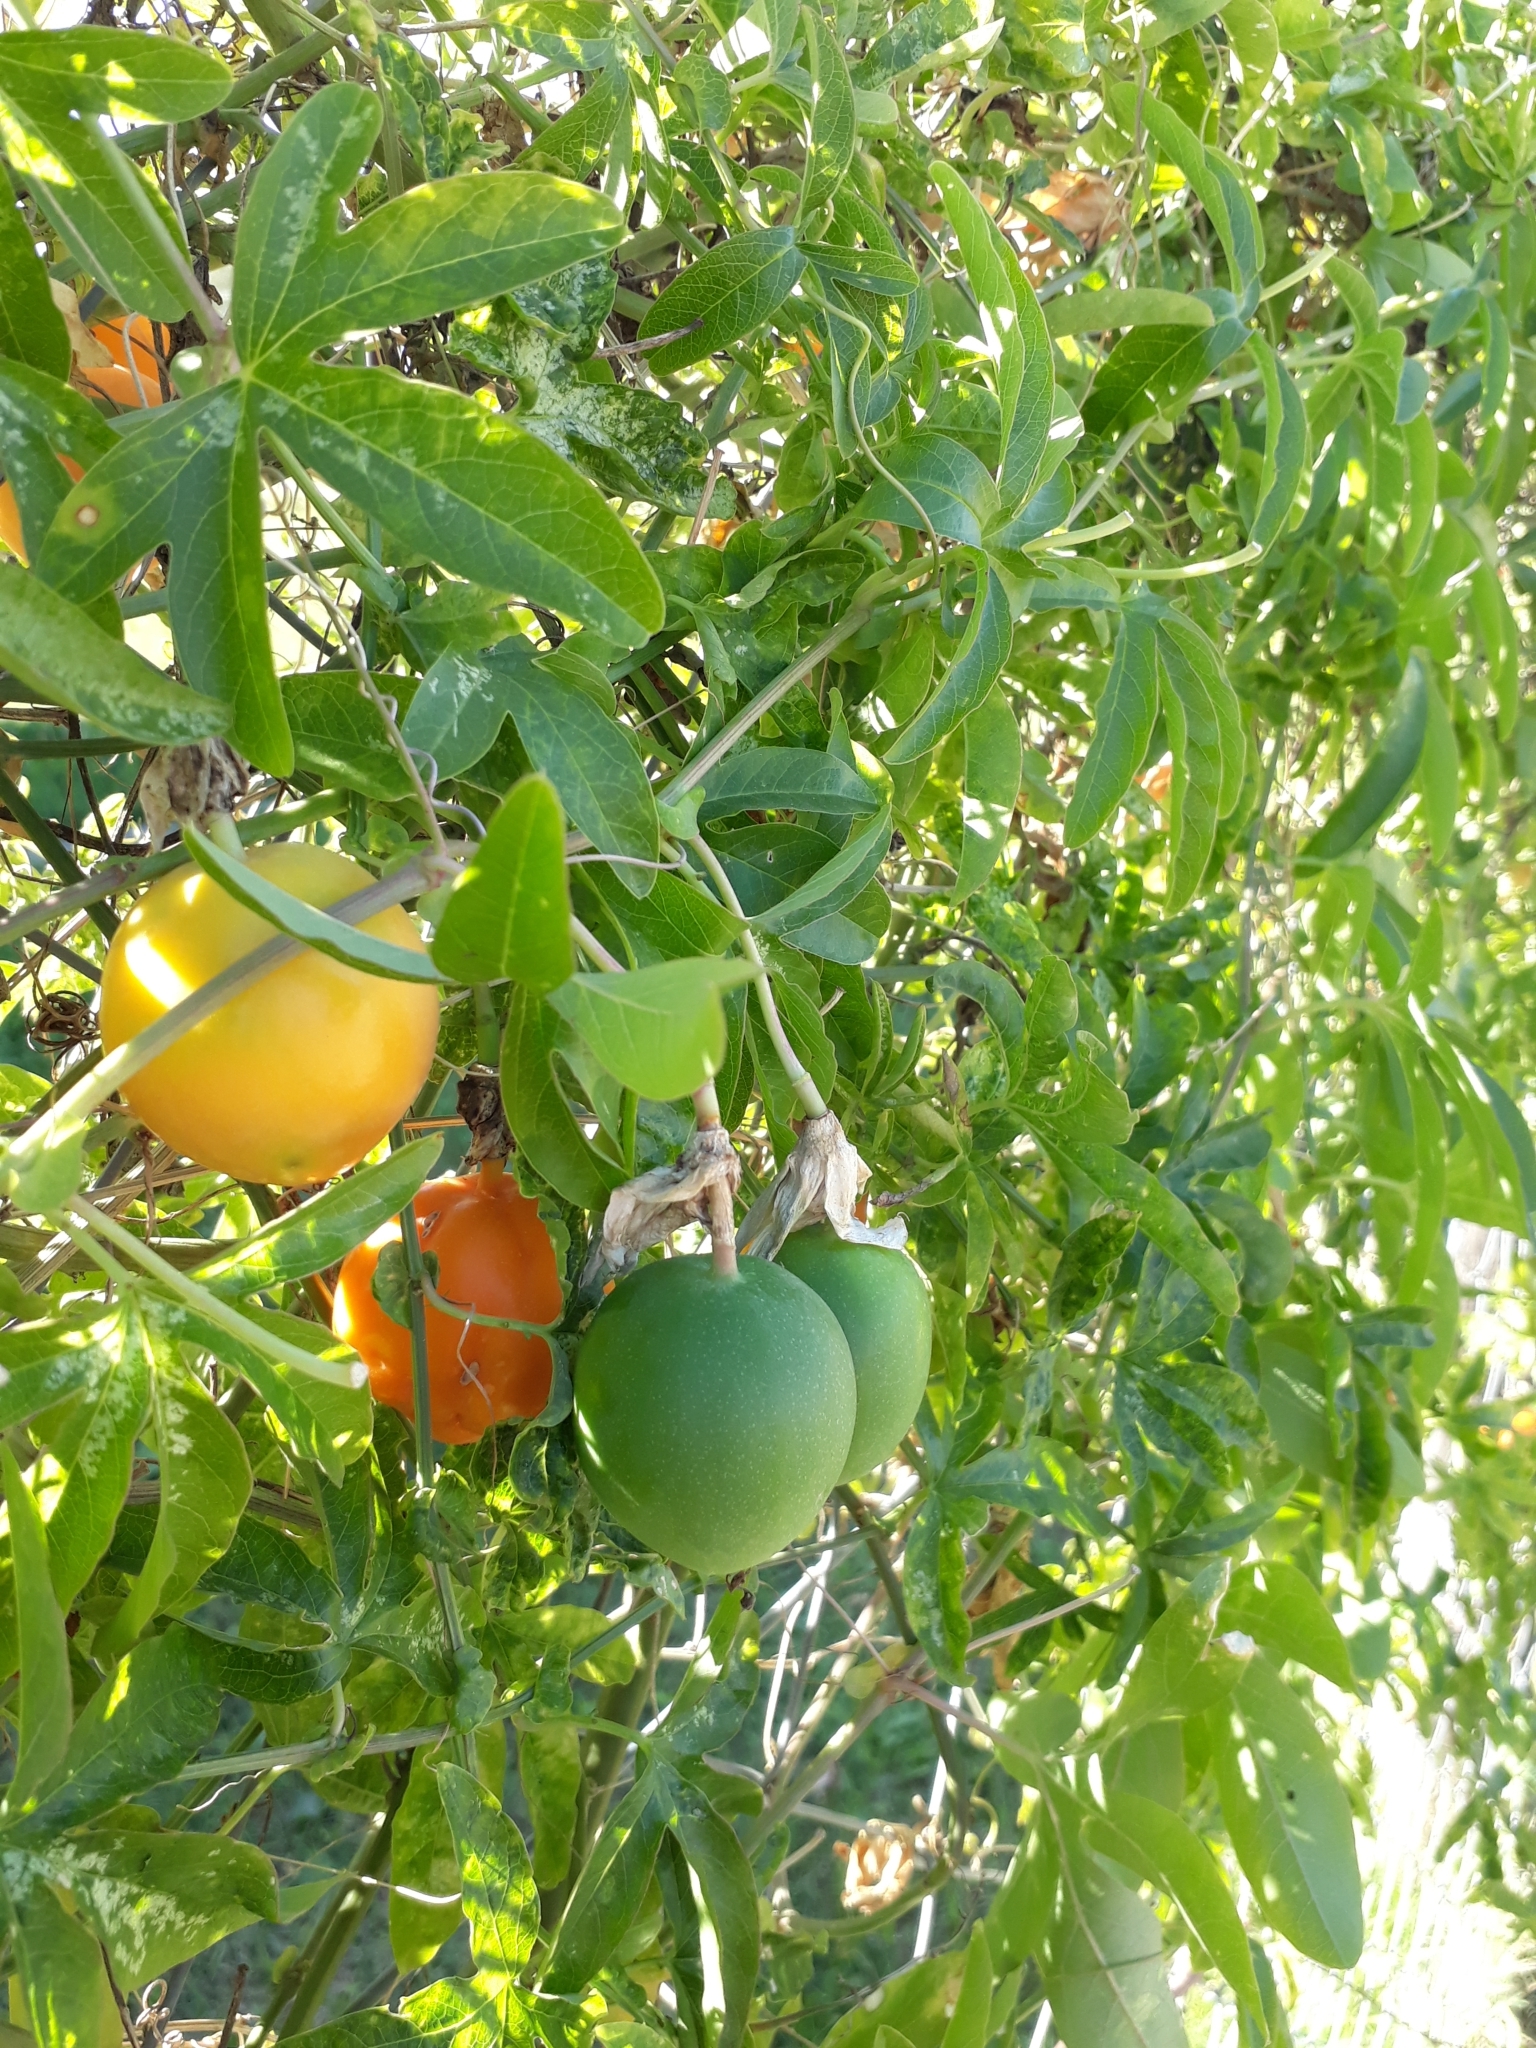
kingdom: Plantae
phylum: Tracheophyta
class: Magnoliopsida
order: Malpighiales
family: Passifloraceae
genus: Passiflora
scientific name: Passiflora caerulea
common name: Blue passionflower
